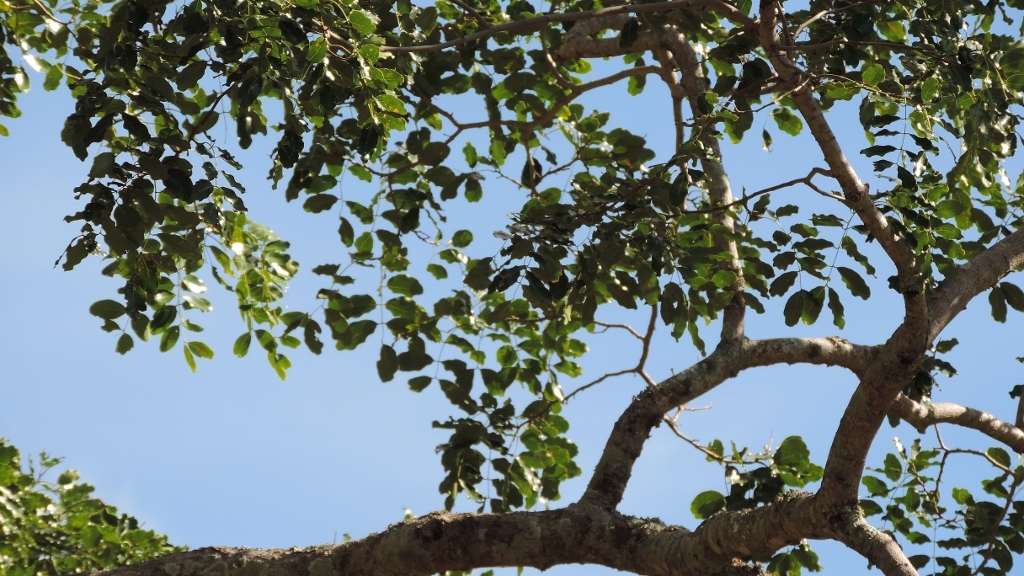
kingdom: Plantae
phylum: Tracheophyta
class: Magnoliopsida
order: Fabales
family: Fabaceae
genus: Afzelia
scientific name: Afzelia quanzensis
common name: Pod mahogany
